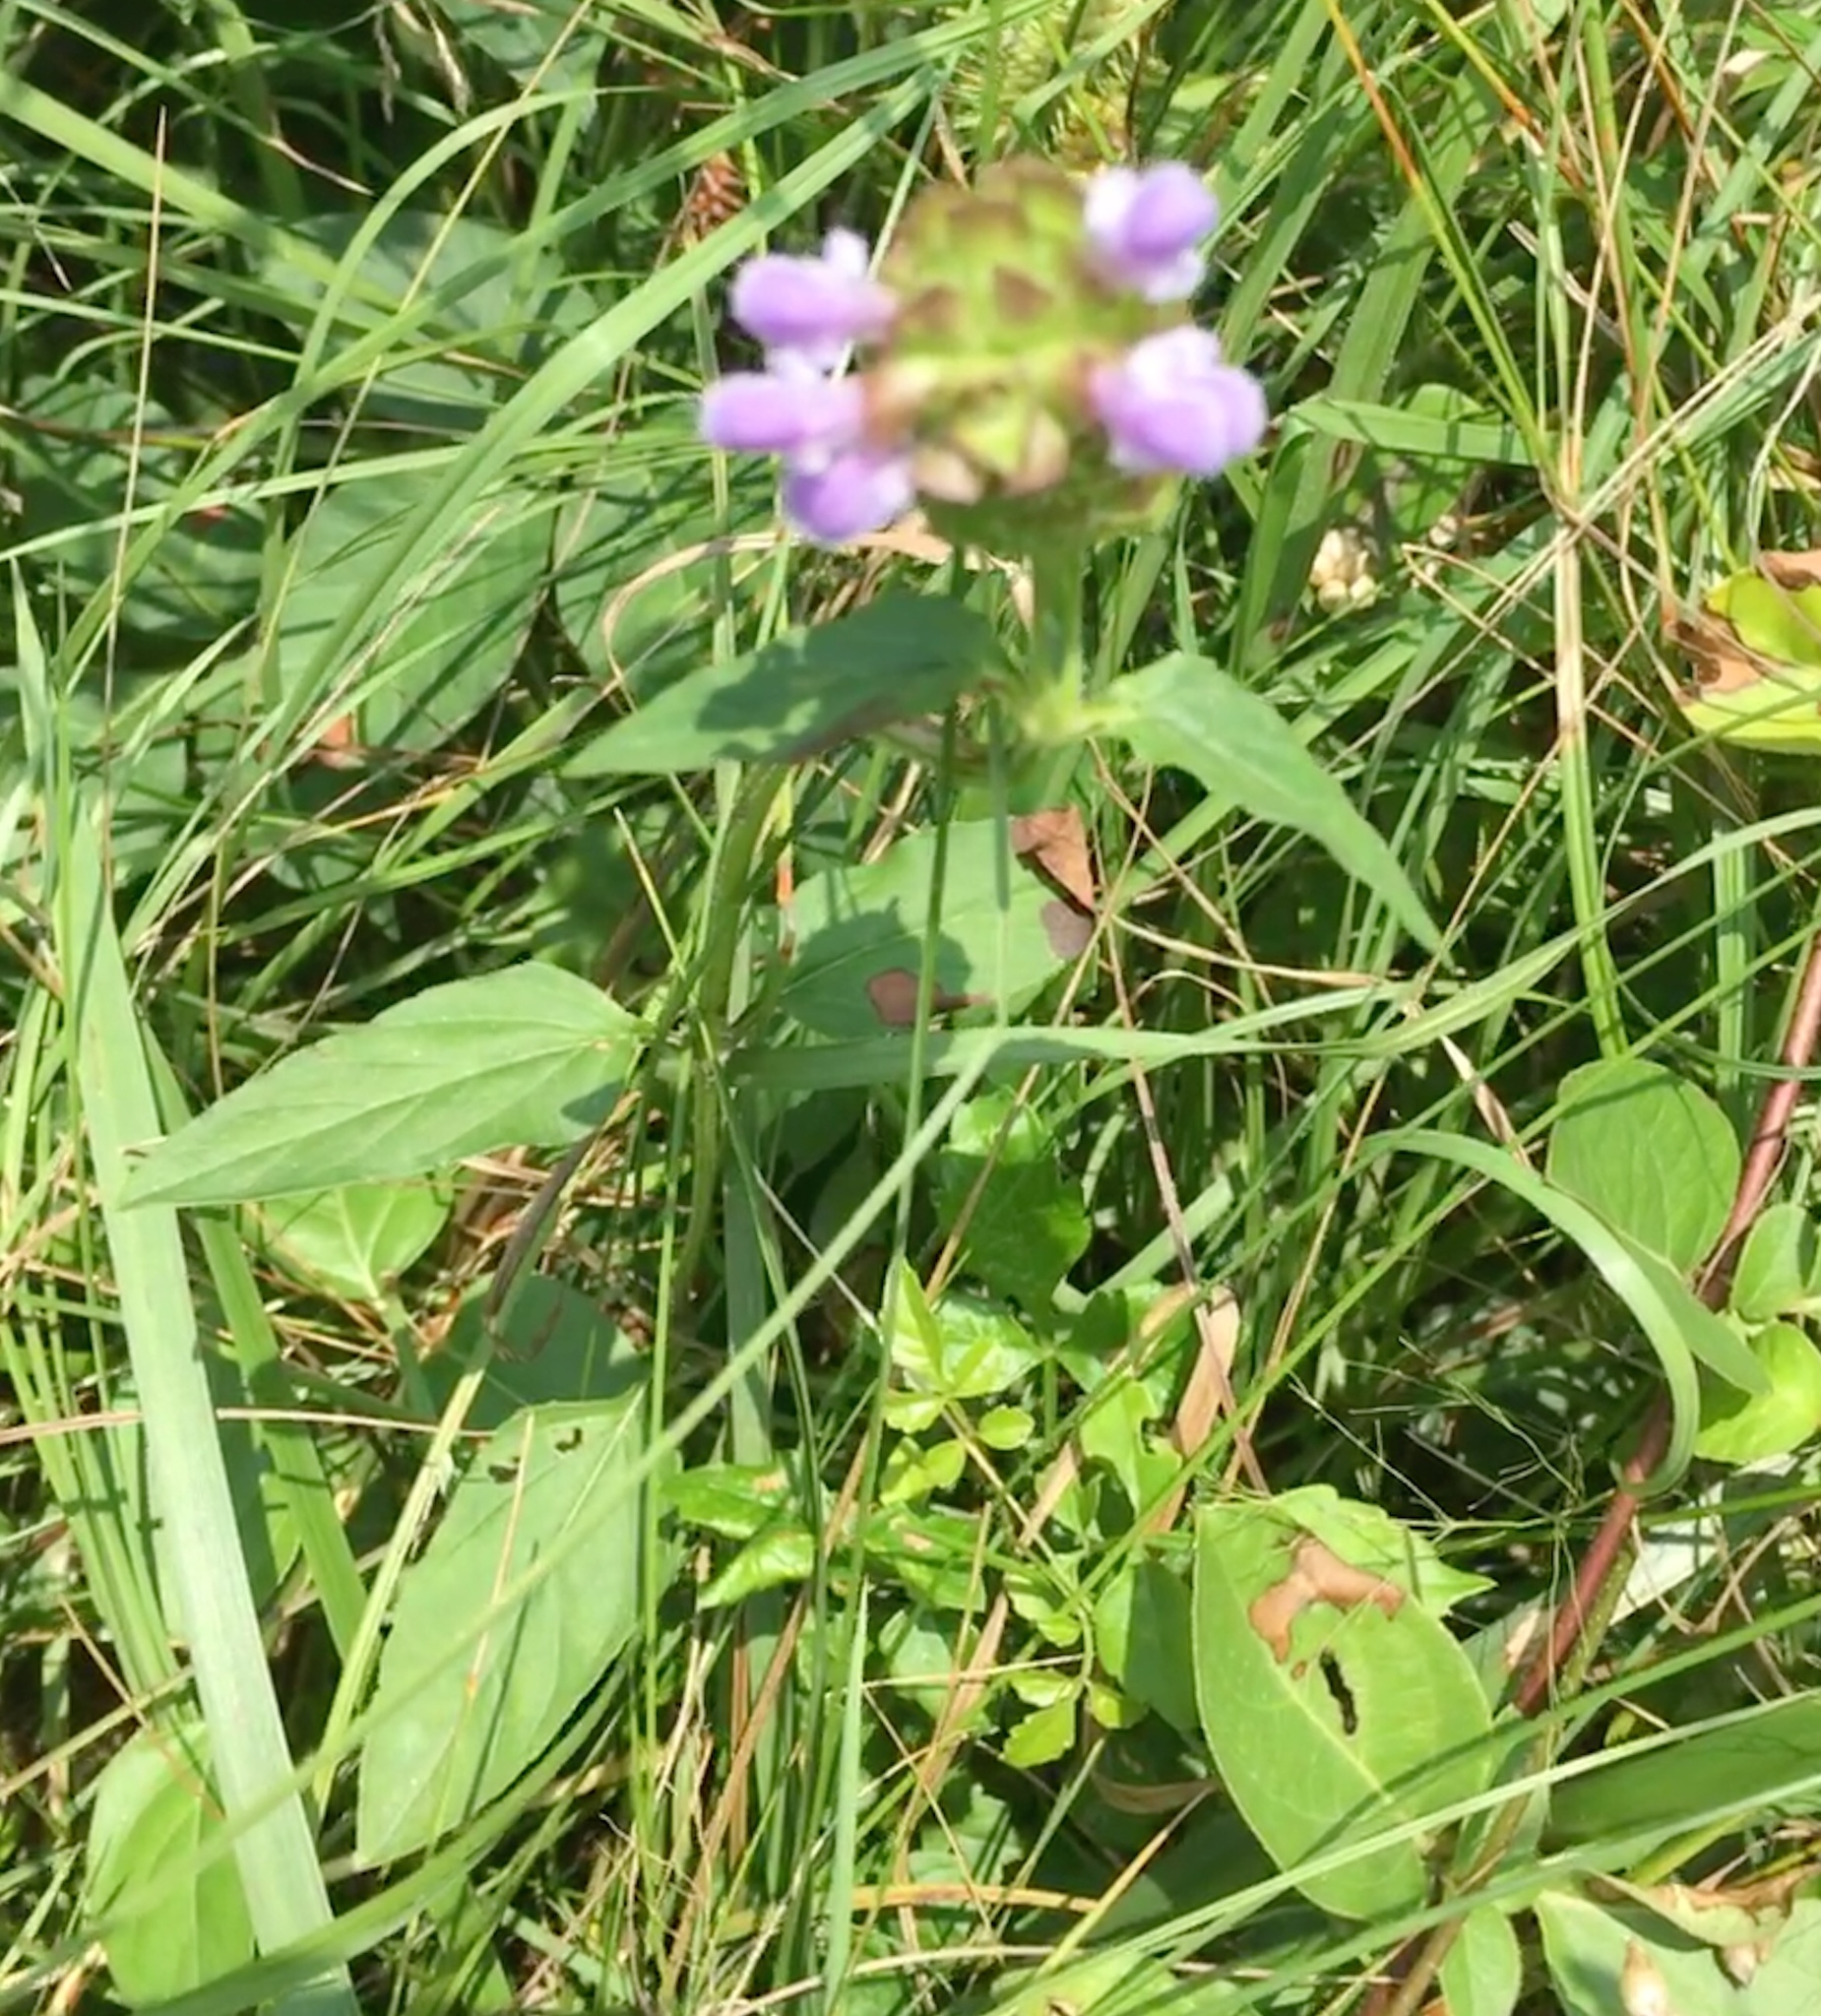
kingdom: Plantae
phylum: Tracheophyta
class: Magnoliopsida
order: Lamiales
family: Lamiaceae
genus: Prunella
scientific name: Prunella vulgaris
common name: Heal-all
